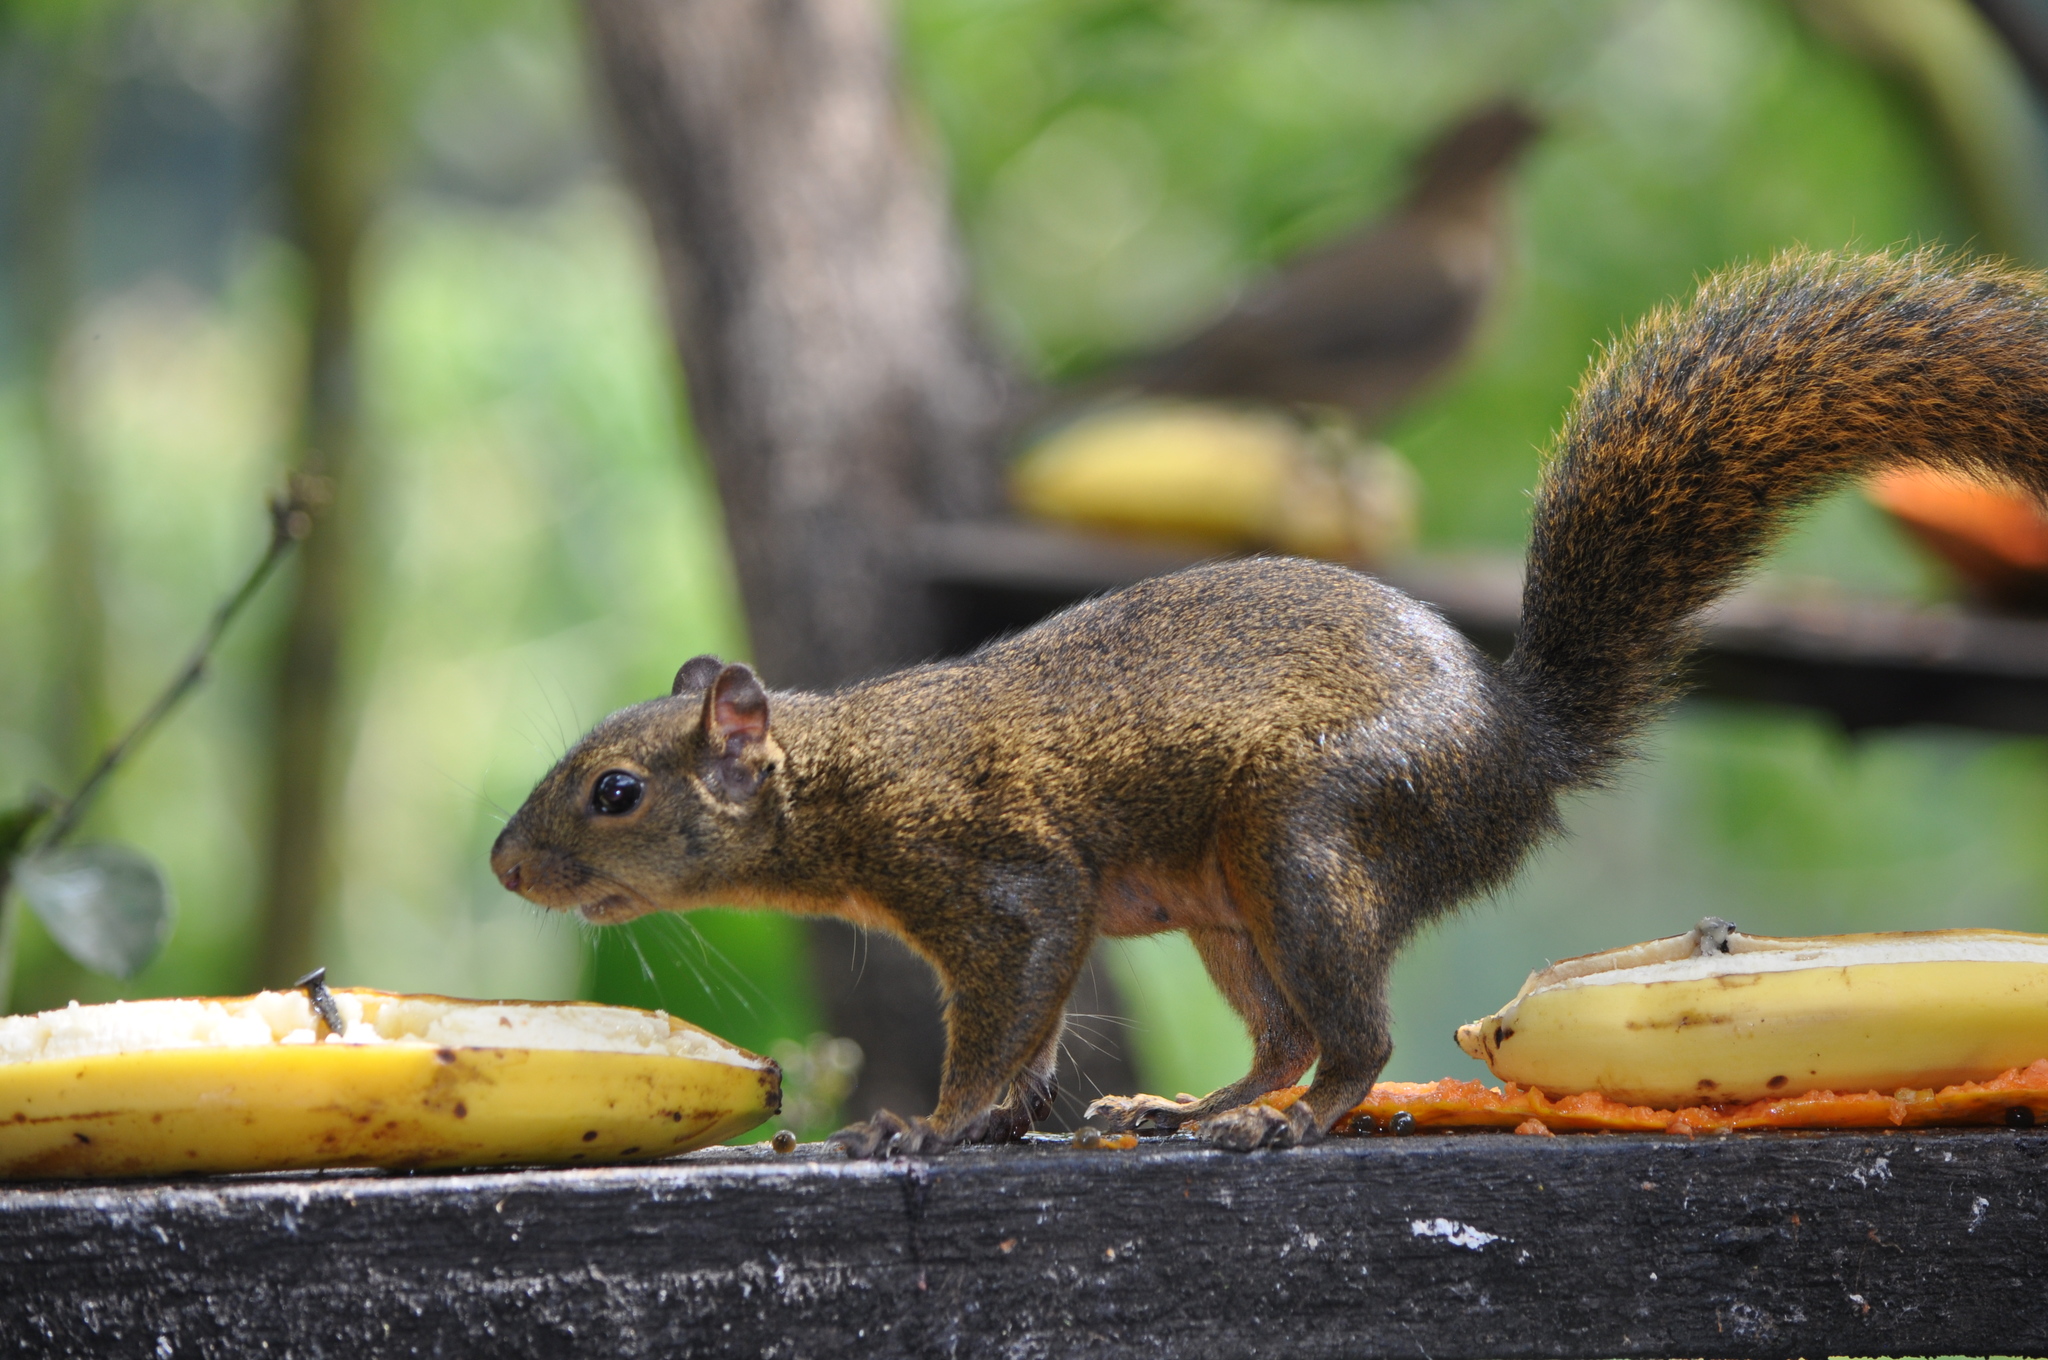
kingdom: Animalia
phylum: Chordata
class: Mammalia
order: Rodentia
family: Sciuridae
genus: Sciurus
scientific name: Sciurus variegatoides
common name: Variegated squirrel
